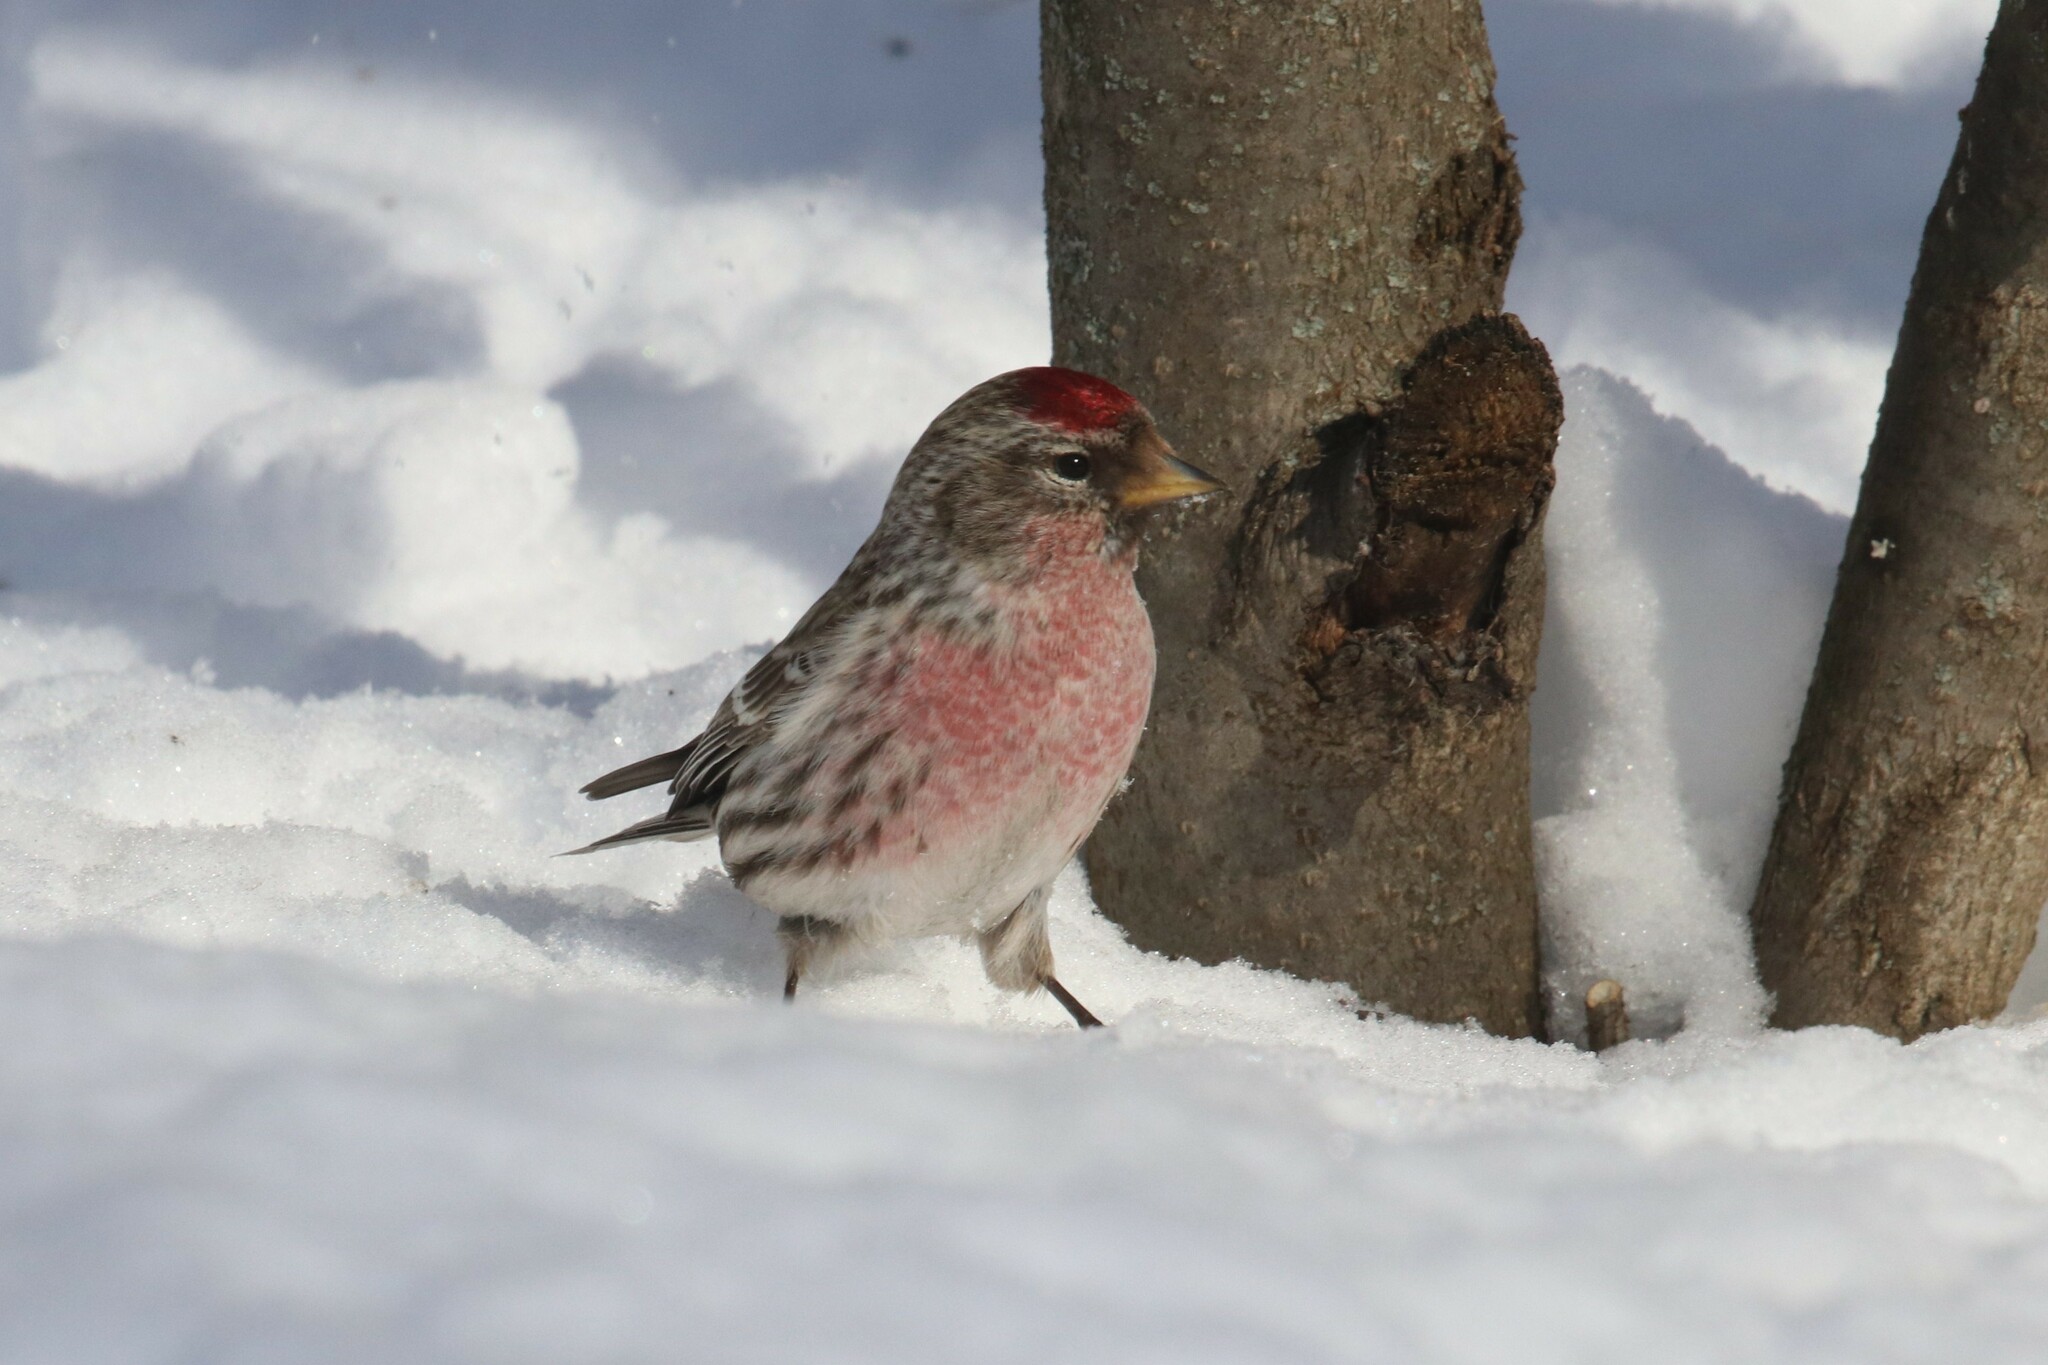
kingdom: Animalia
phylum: Chordata
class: Aves
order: Passeriformes
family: Fringillidae
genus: Acanthis
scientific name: Acanthis flammea
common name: Common redpoll
